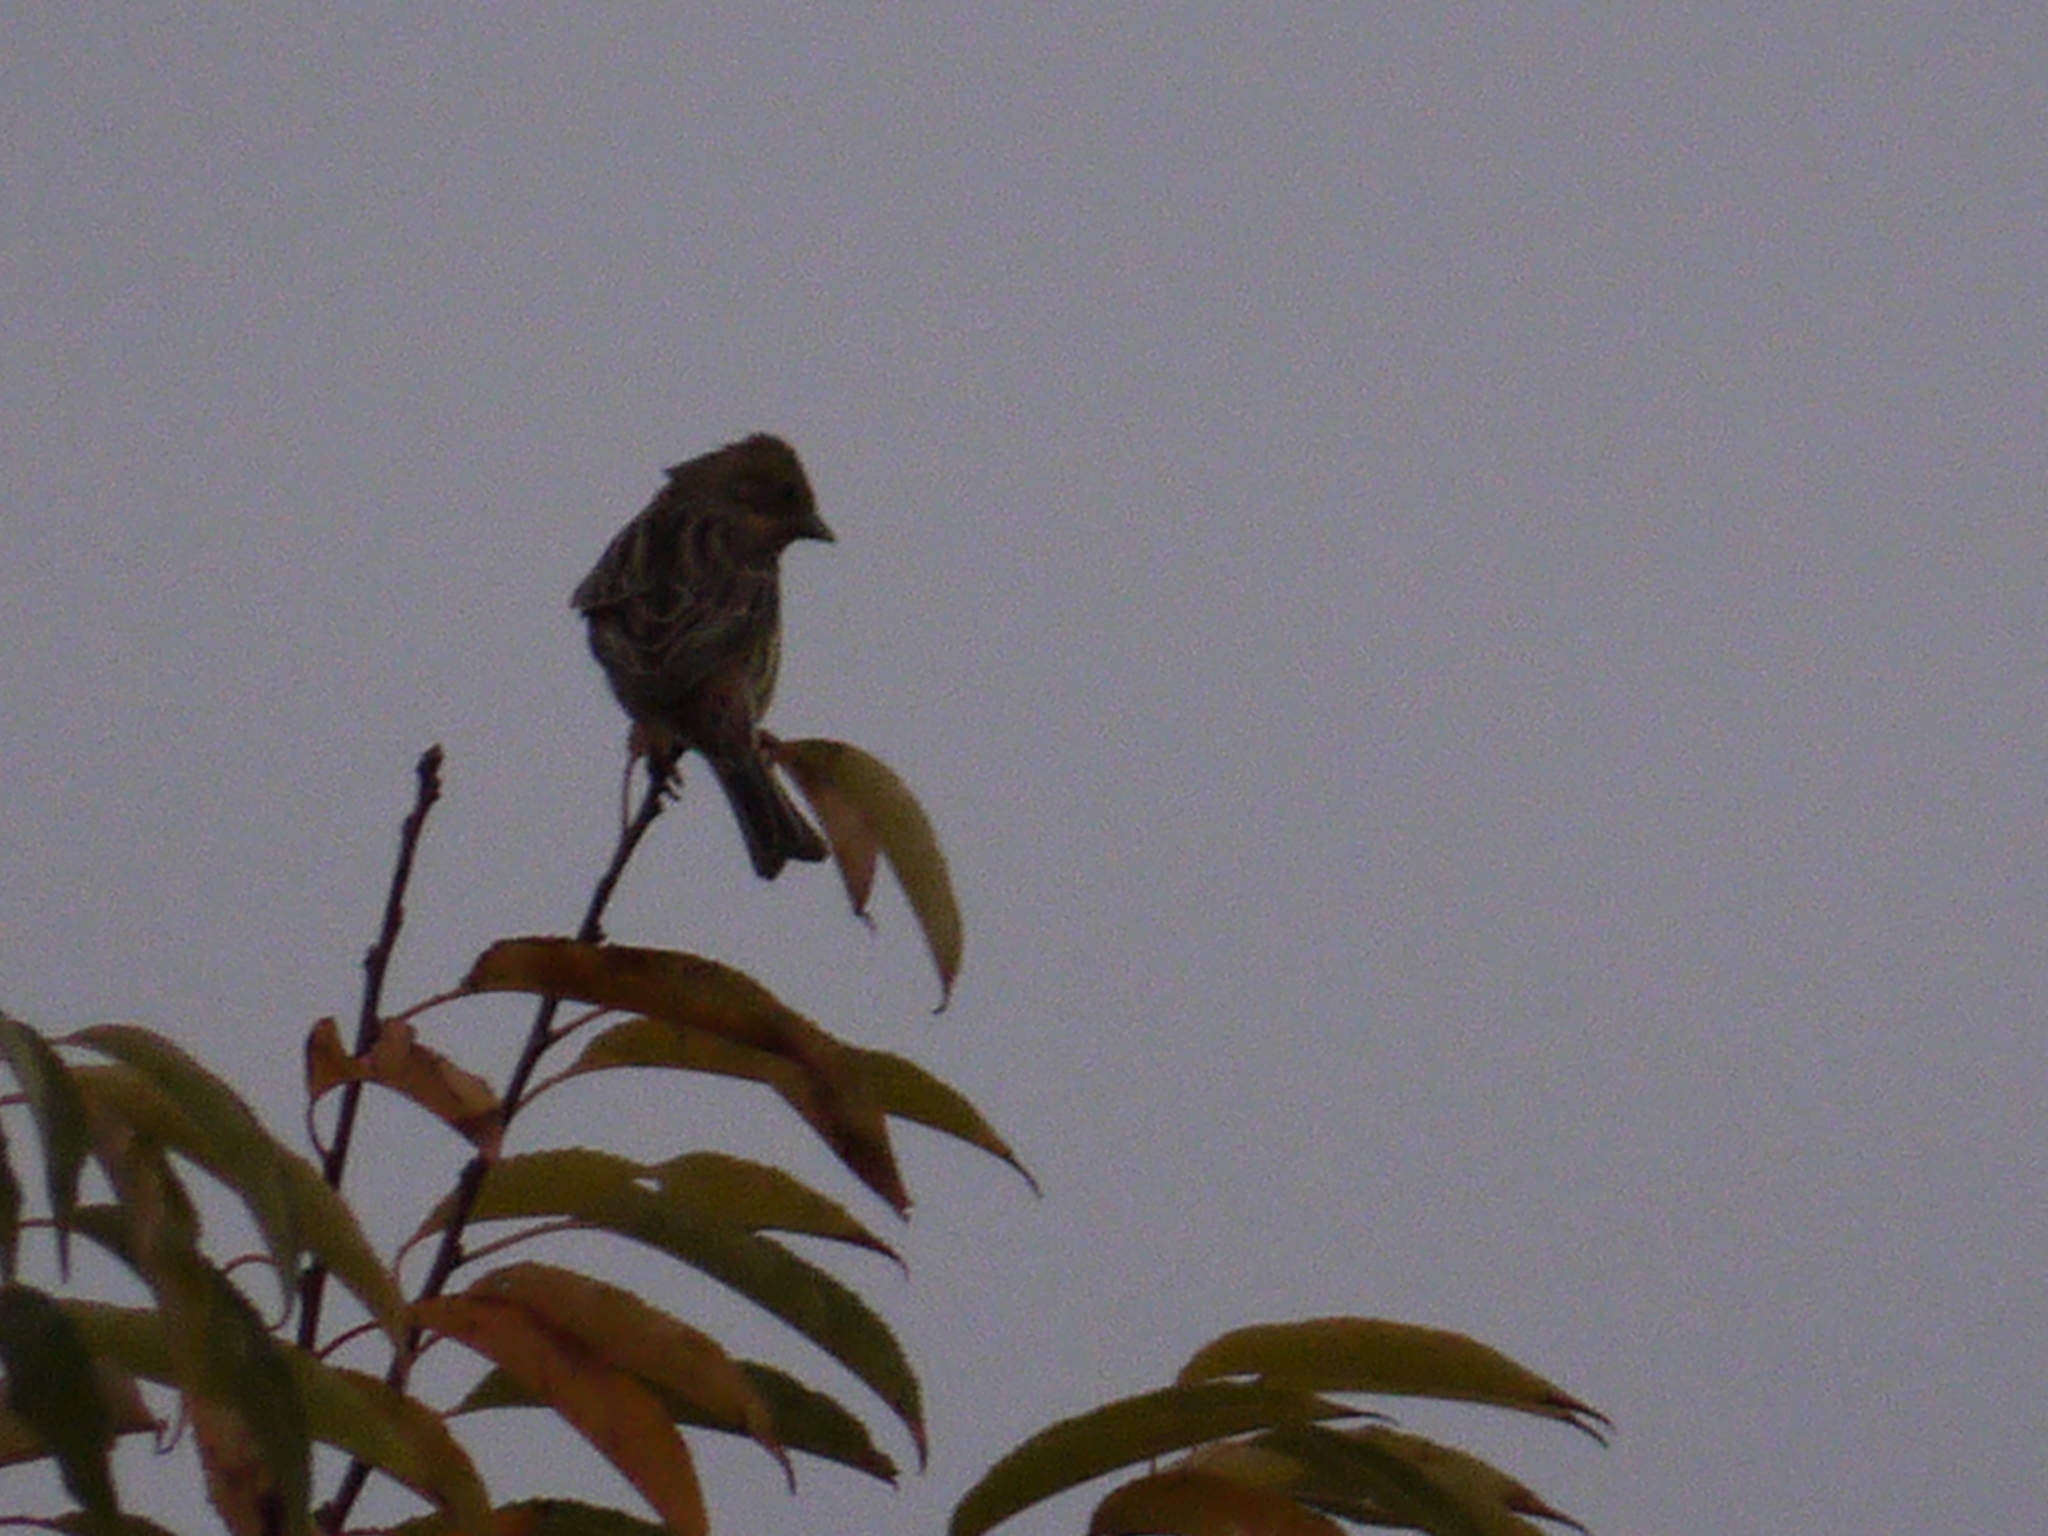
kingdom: Animalia
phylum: Chordata
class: Aves
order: Passeriformes
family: Emberizidae
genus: Emberiza
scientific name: Emberiza citrinella
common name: Yellowhammer
